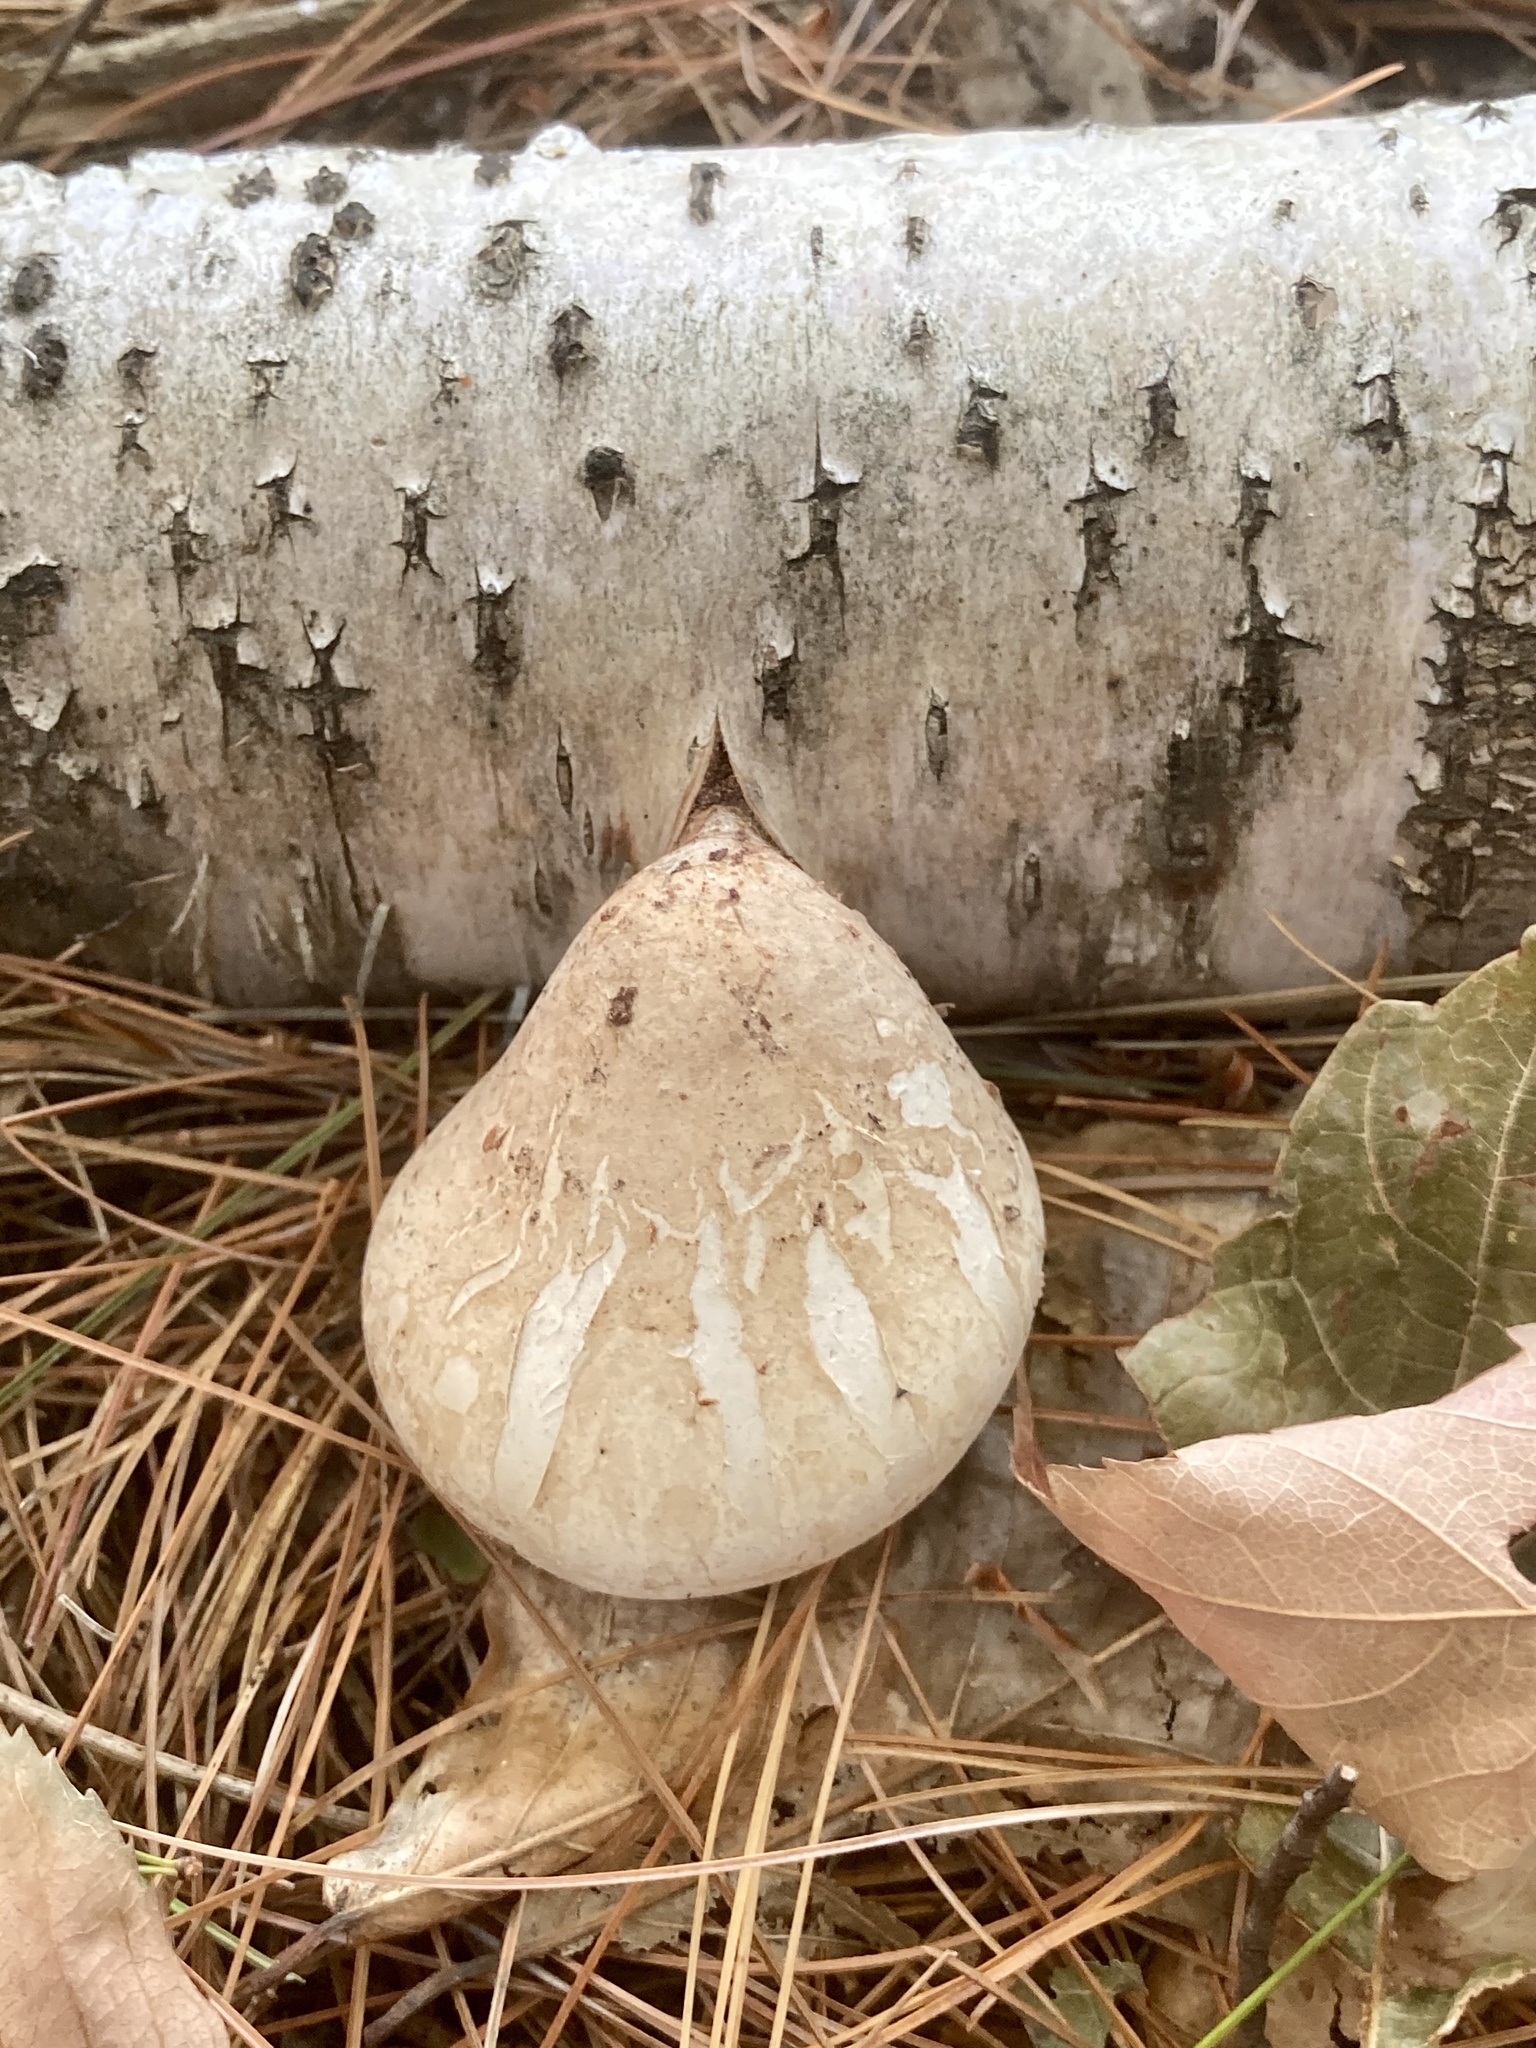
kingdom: Fungi
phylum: Basidiomycota
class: Agaricomycetes
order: Polyporales
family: Fomitopsidaceae
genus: Fomitopsis
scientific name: Fomitopsis betulina
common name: Birch polypore
